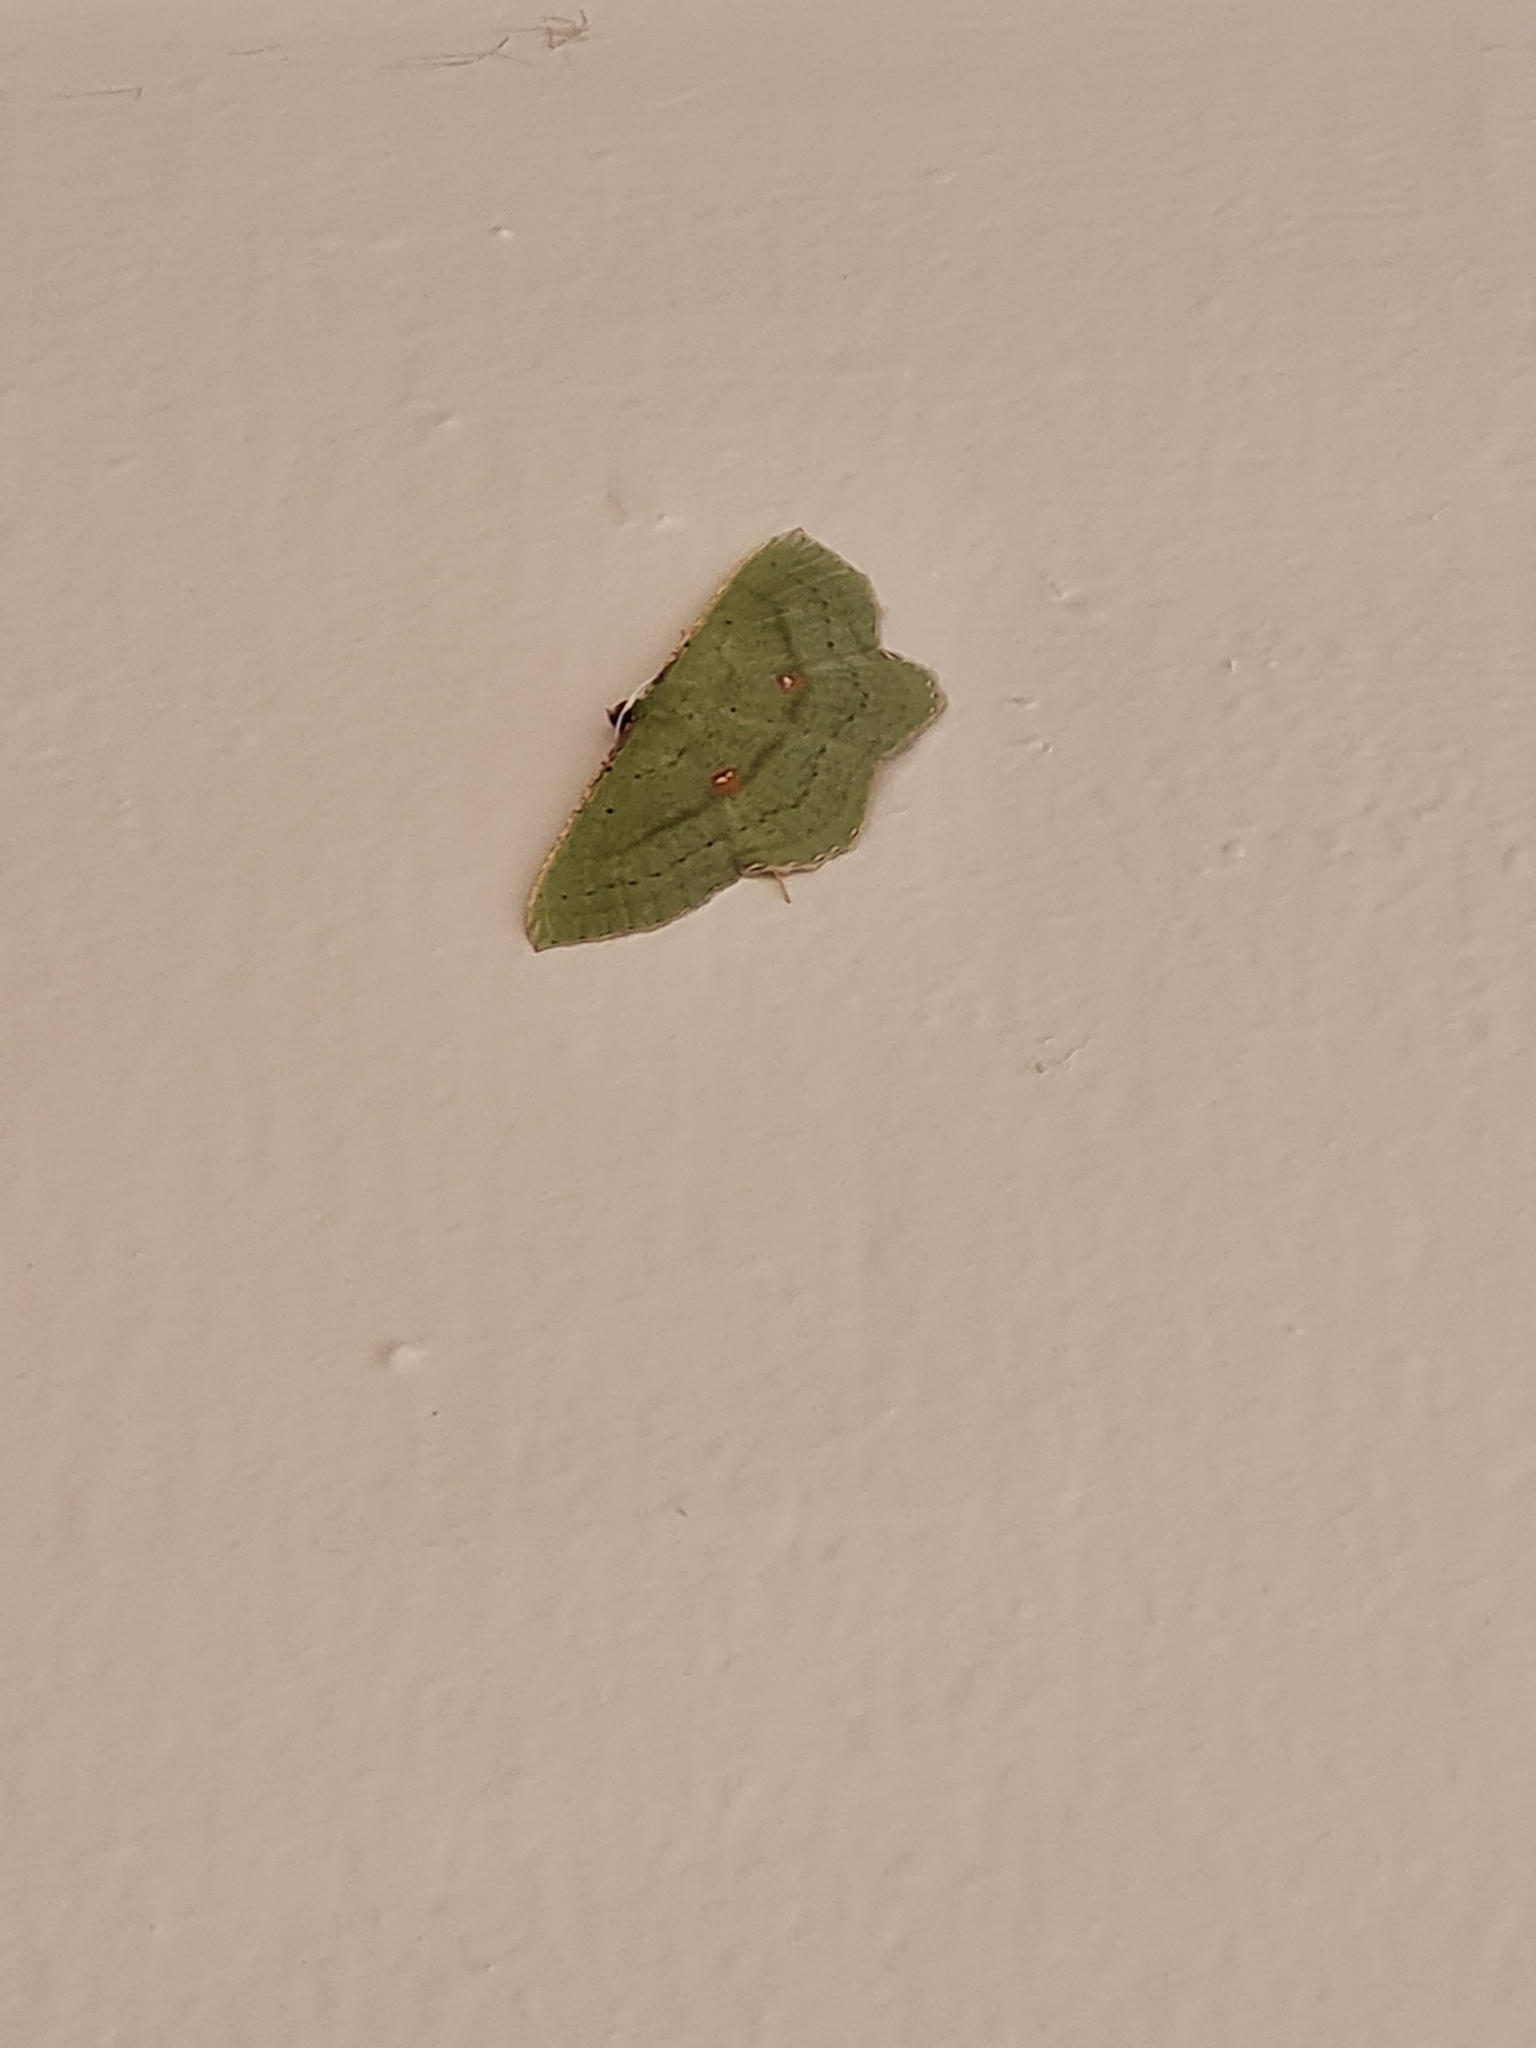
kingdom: Animalia
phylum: Arthropoda
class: Insecta
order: Lepidoptera
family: Geometridae
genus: Ametris
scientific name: Ametris nitocris
